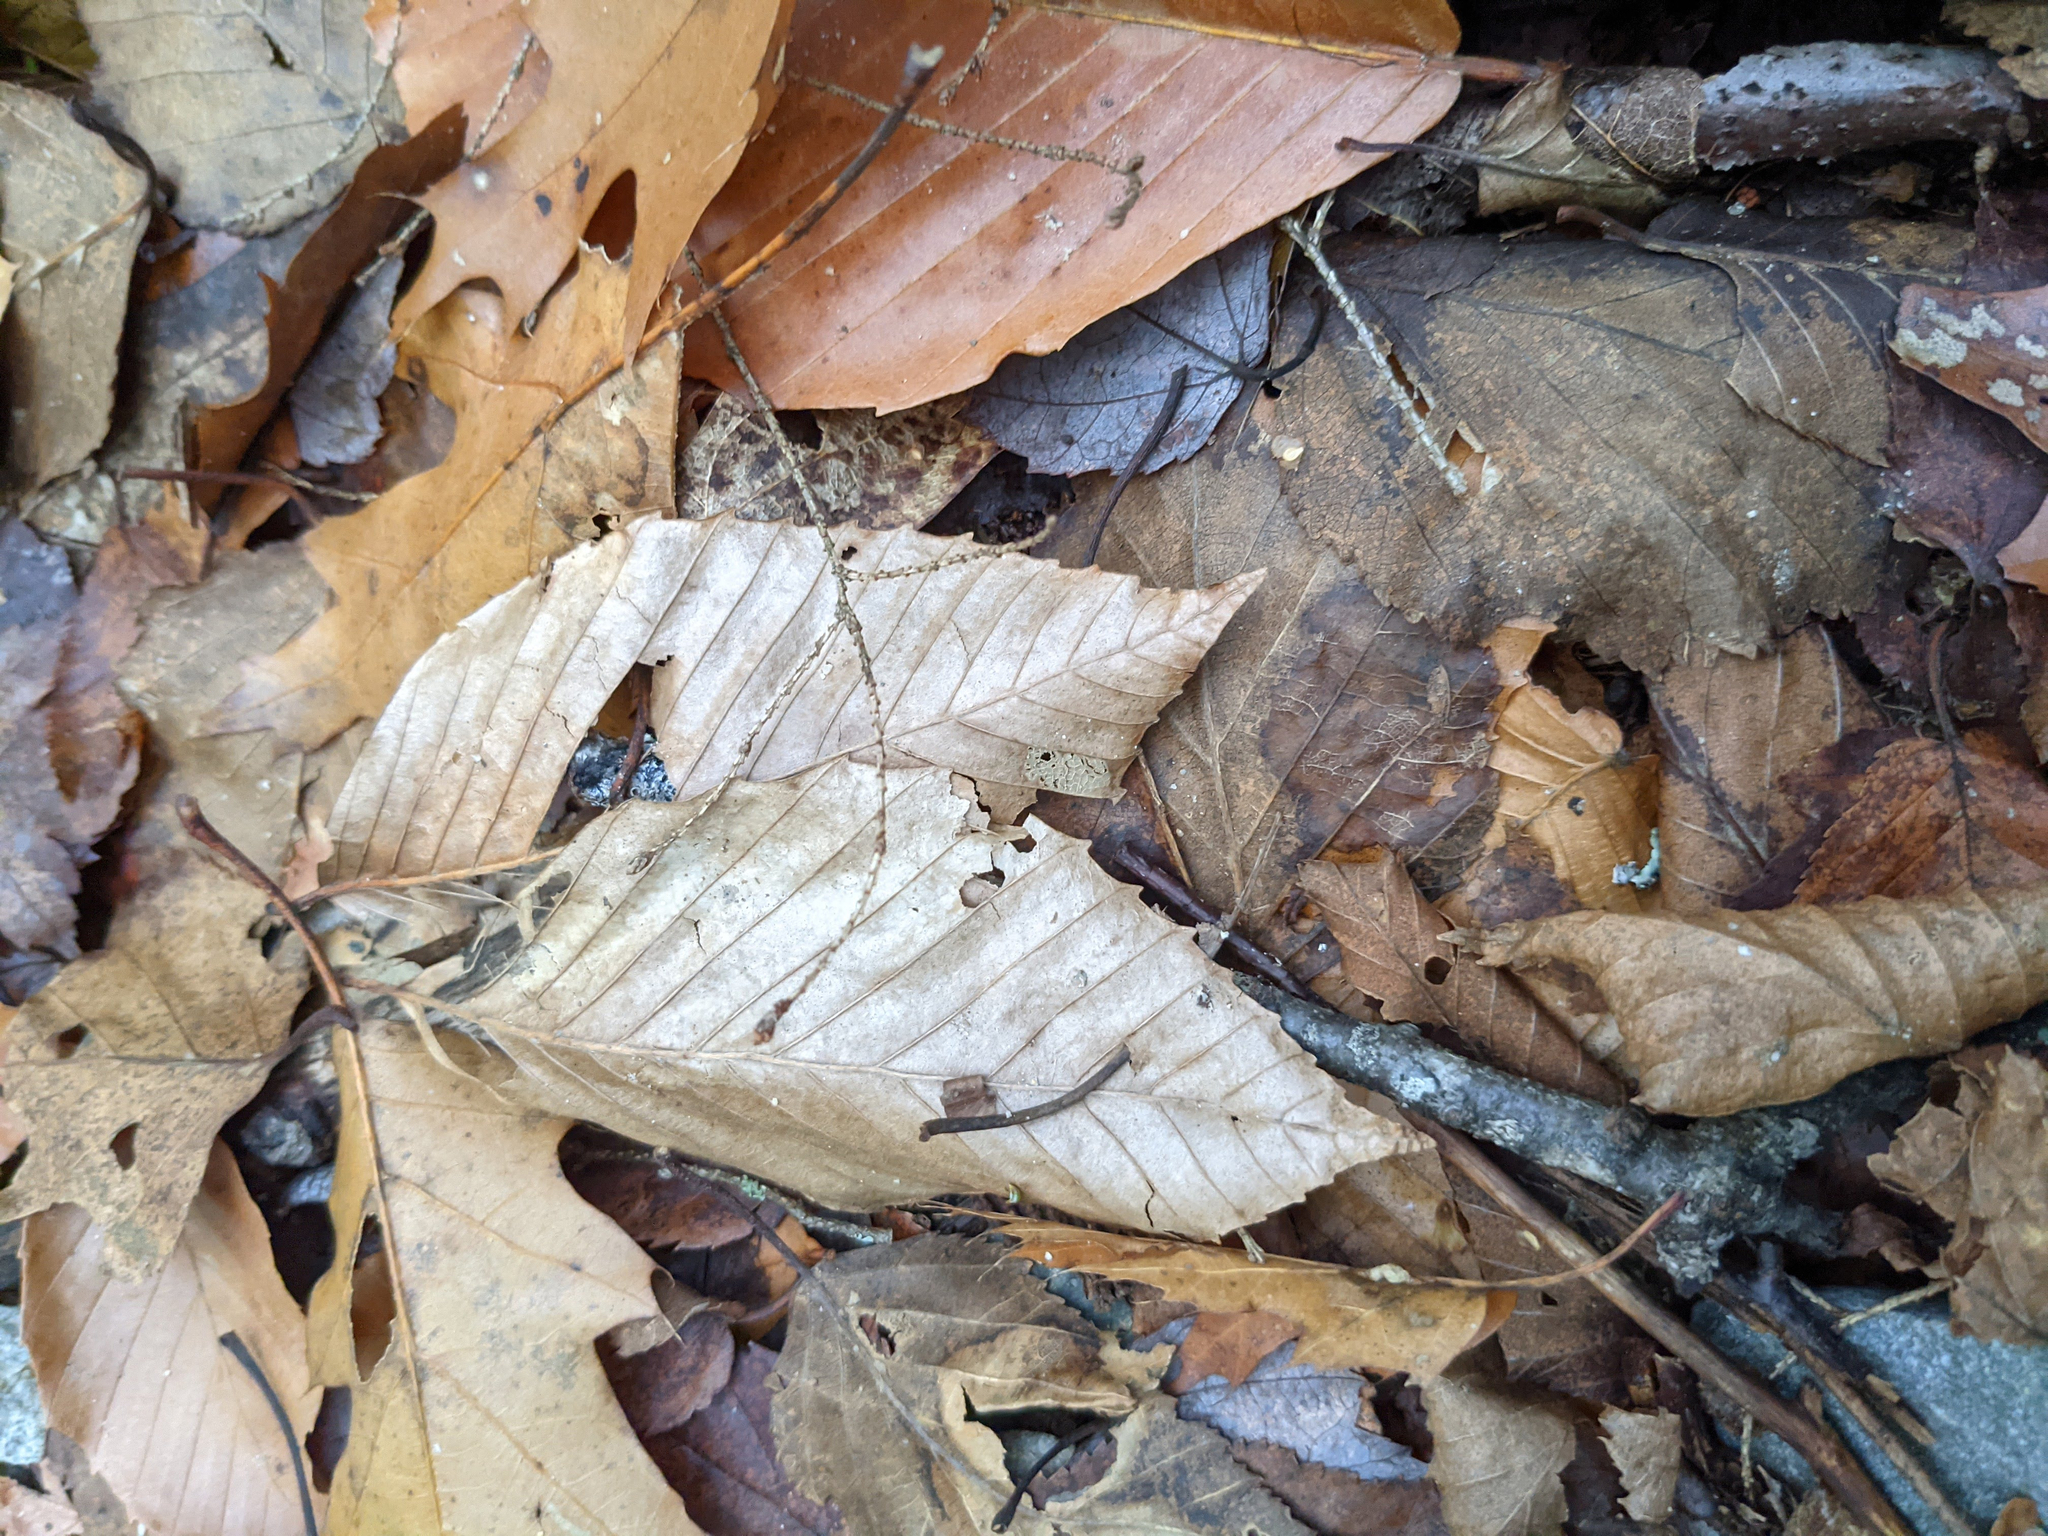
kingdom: Plantae
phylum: Tracheophyta
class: Magnoliopsida
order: Fagales
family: Fagaceae
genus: Fagus
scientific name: Fagus grandifolia
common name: American beech
